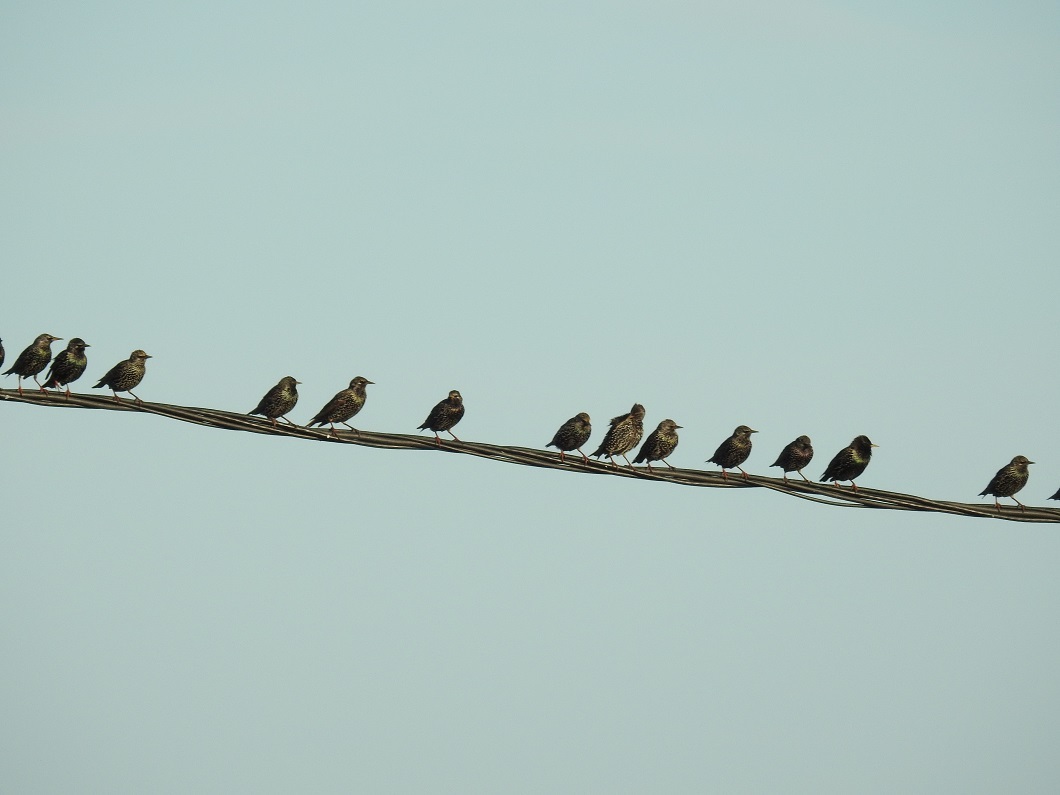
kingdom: Animalia
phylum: Chordata
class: Aves
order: Passeriformes
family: Sturnidae
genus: Sturnus
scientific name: Sturnus vulgaris
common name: Common starling
